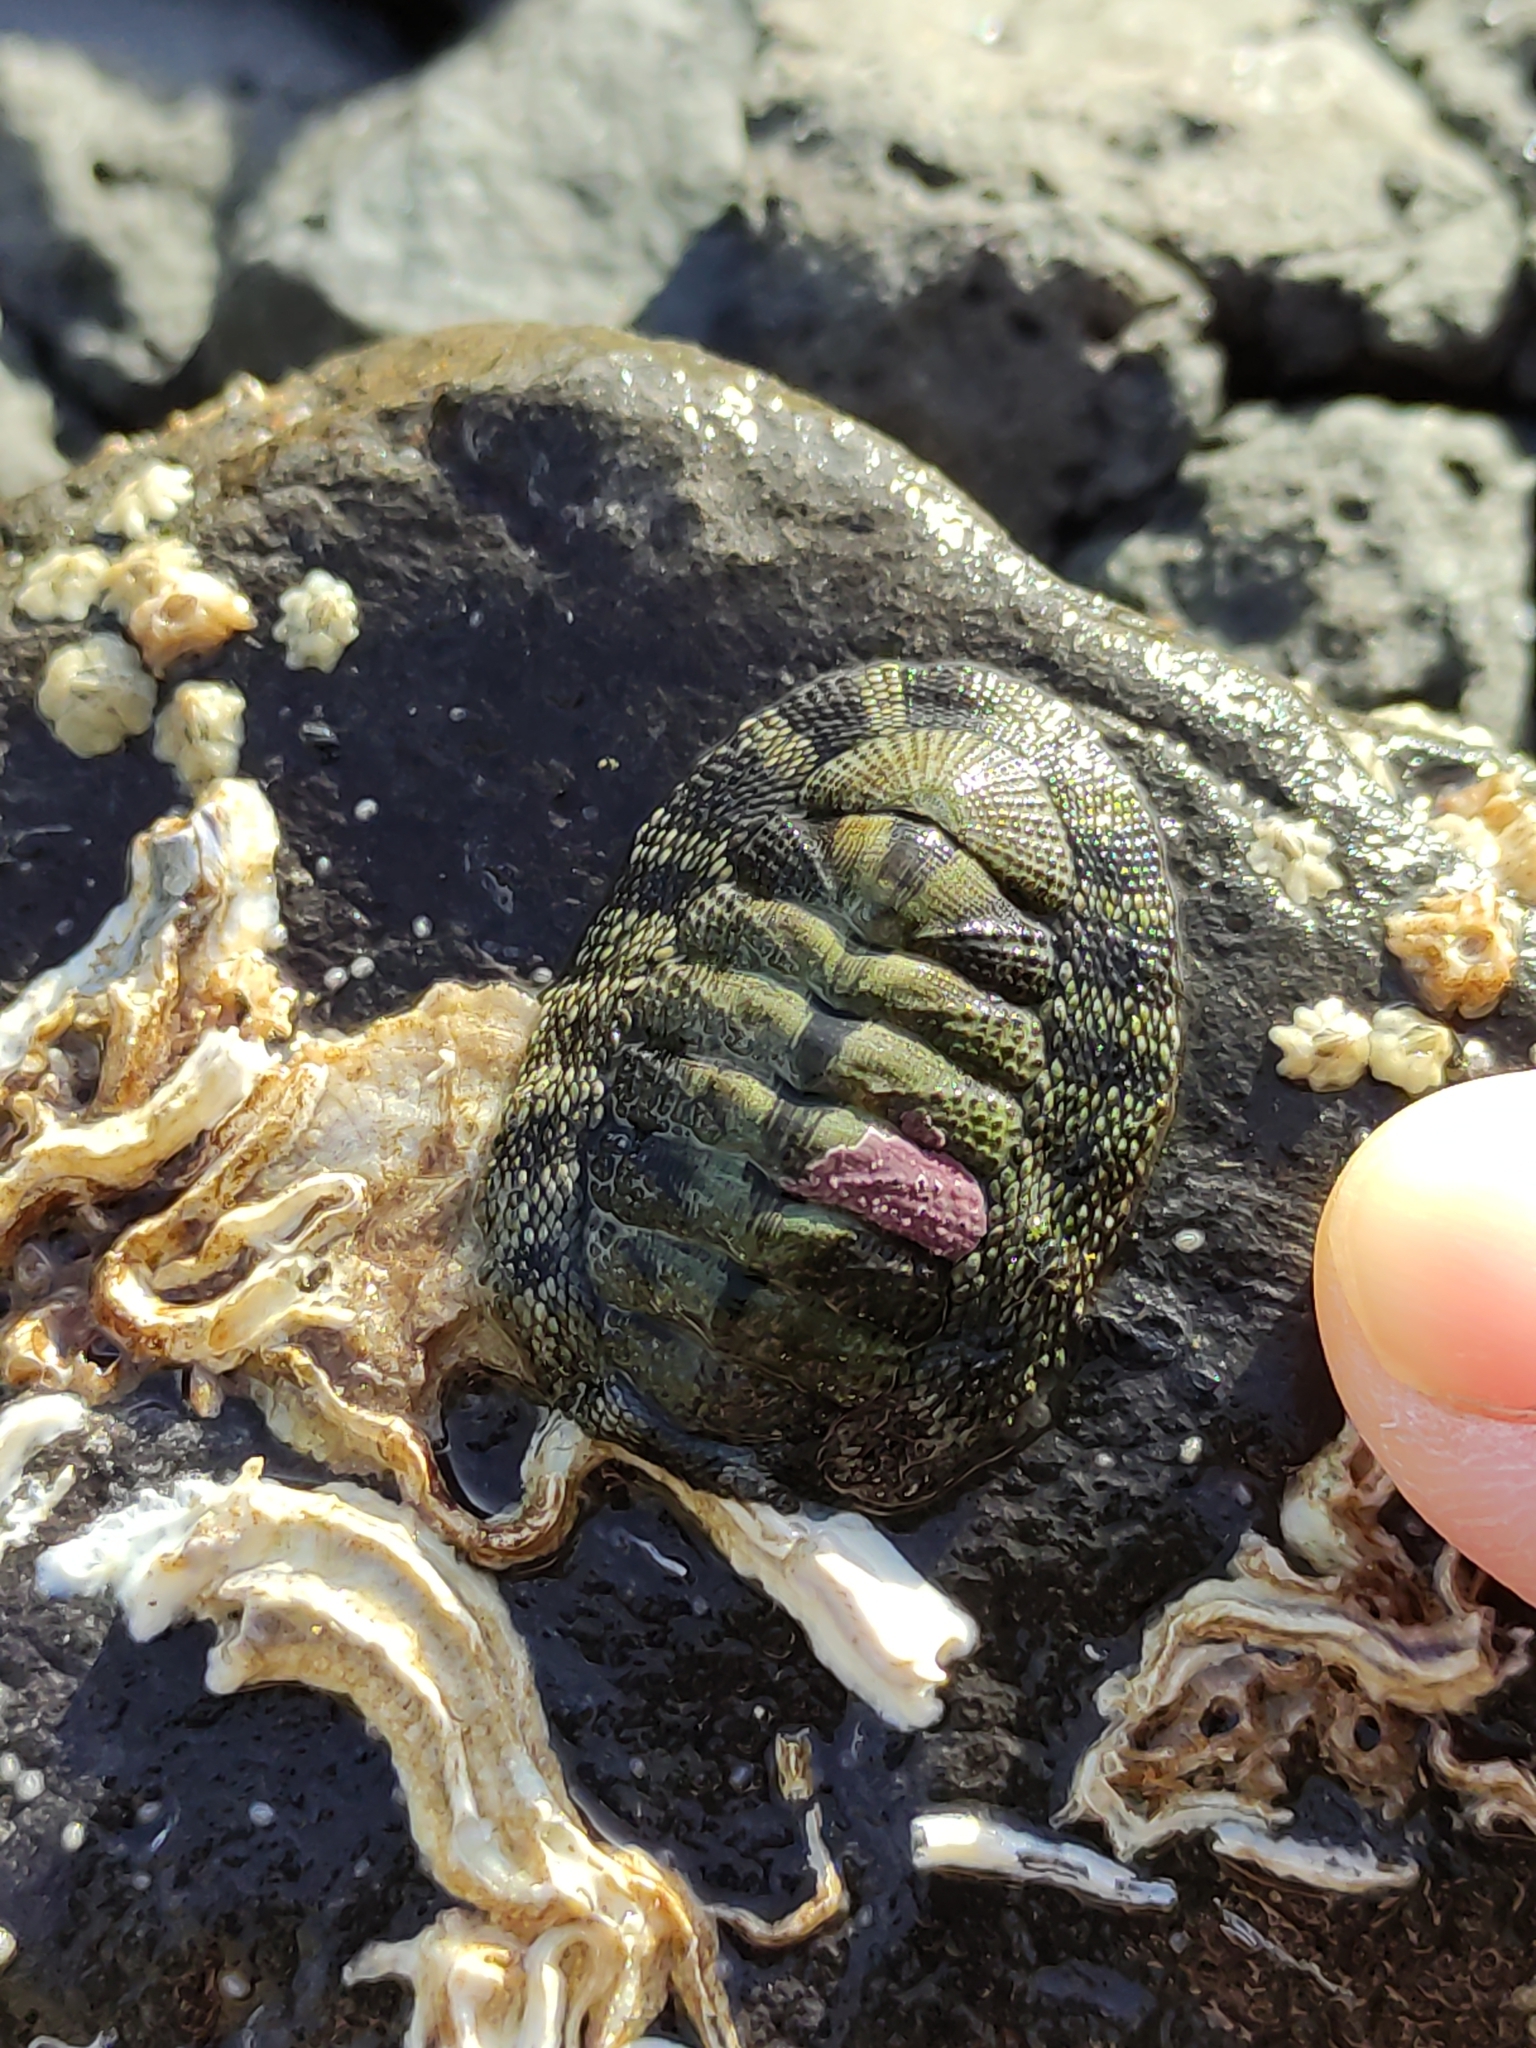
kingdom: Animalia
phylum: Mollusca
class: Polyplacophora
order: Chitonida
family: Chitonidae
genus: Sypharochiton
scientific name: Sypharochiton pelliserpentis
